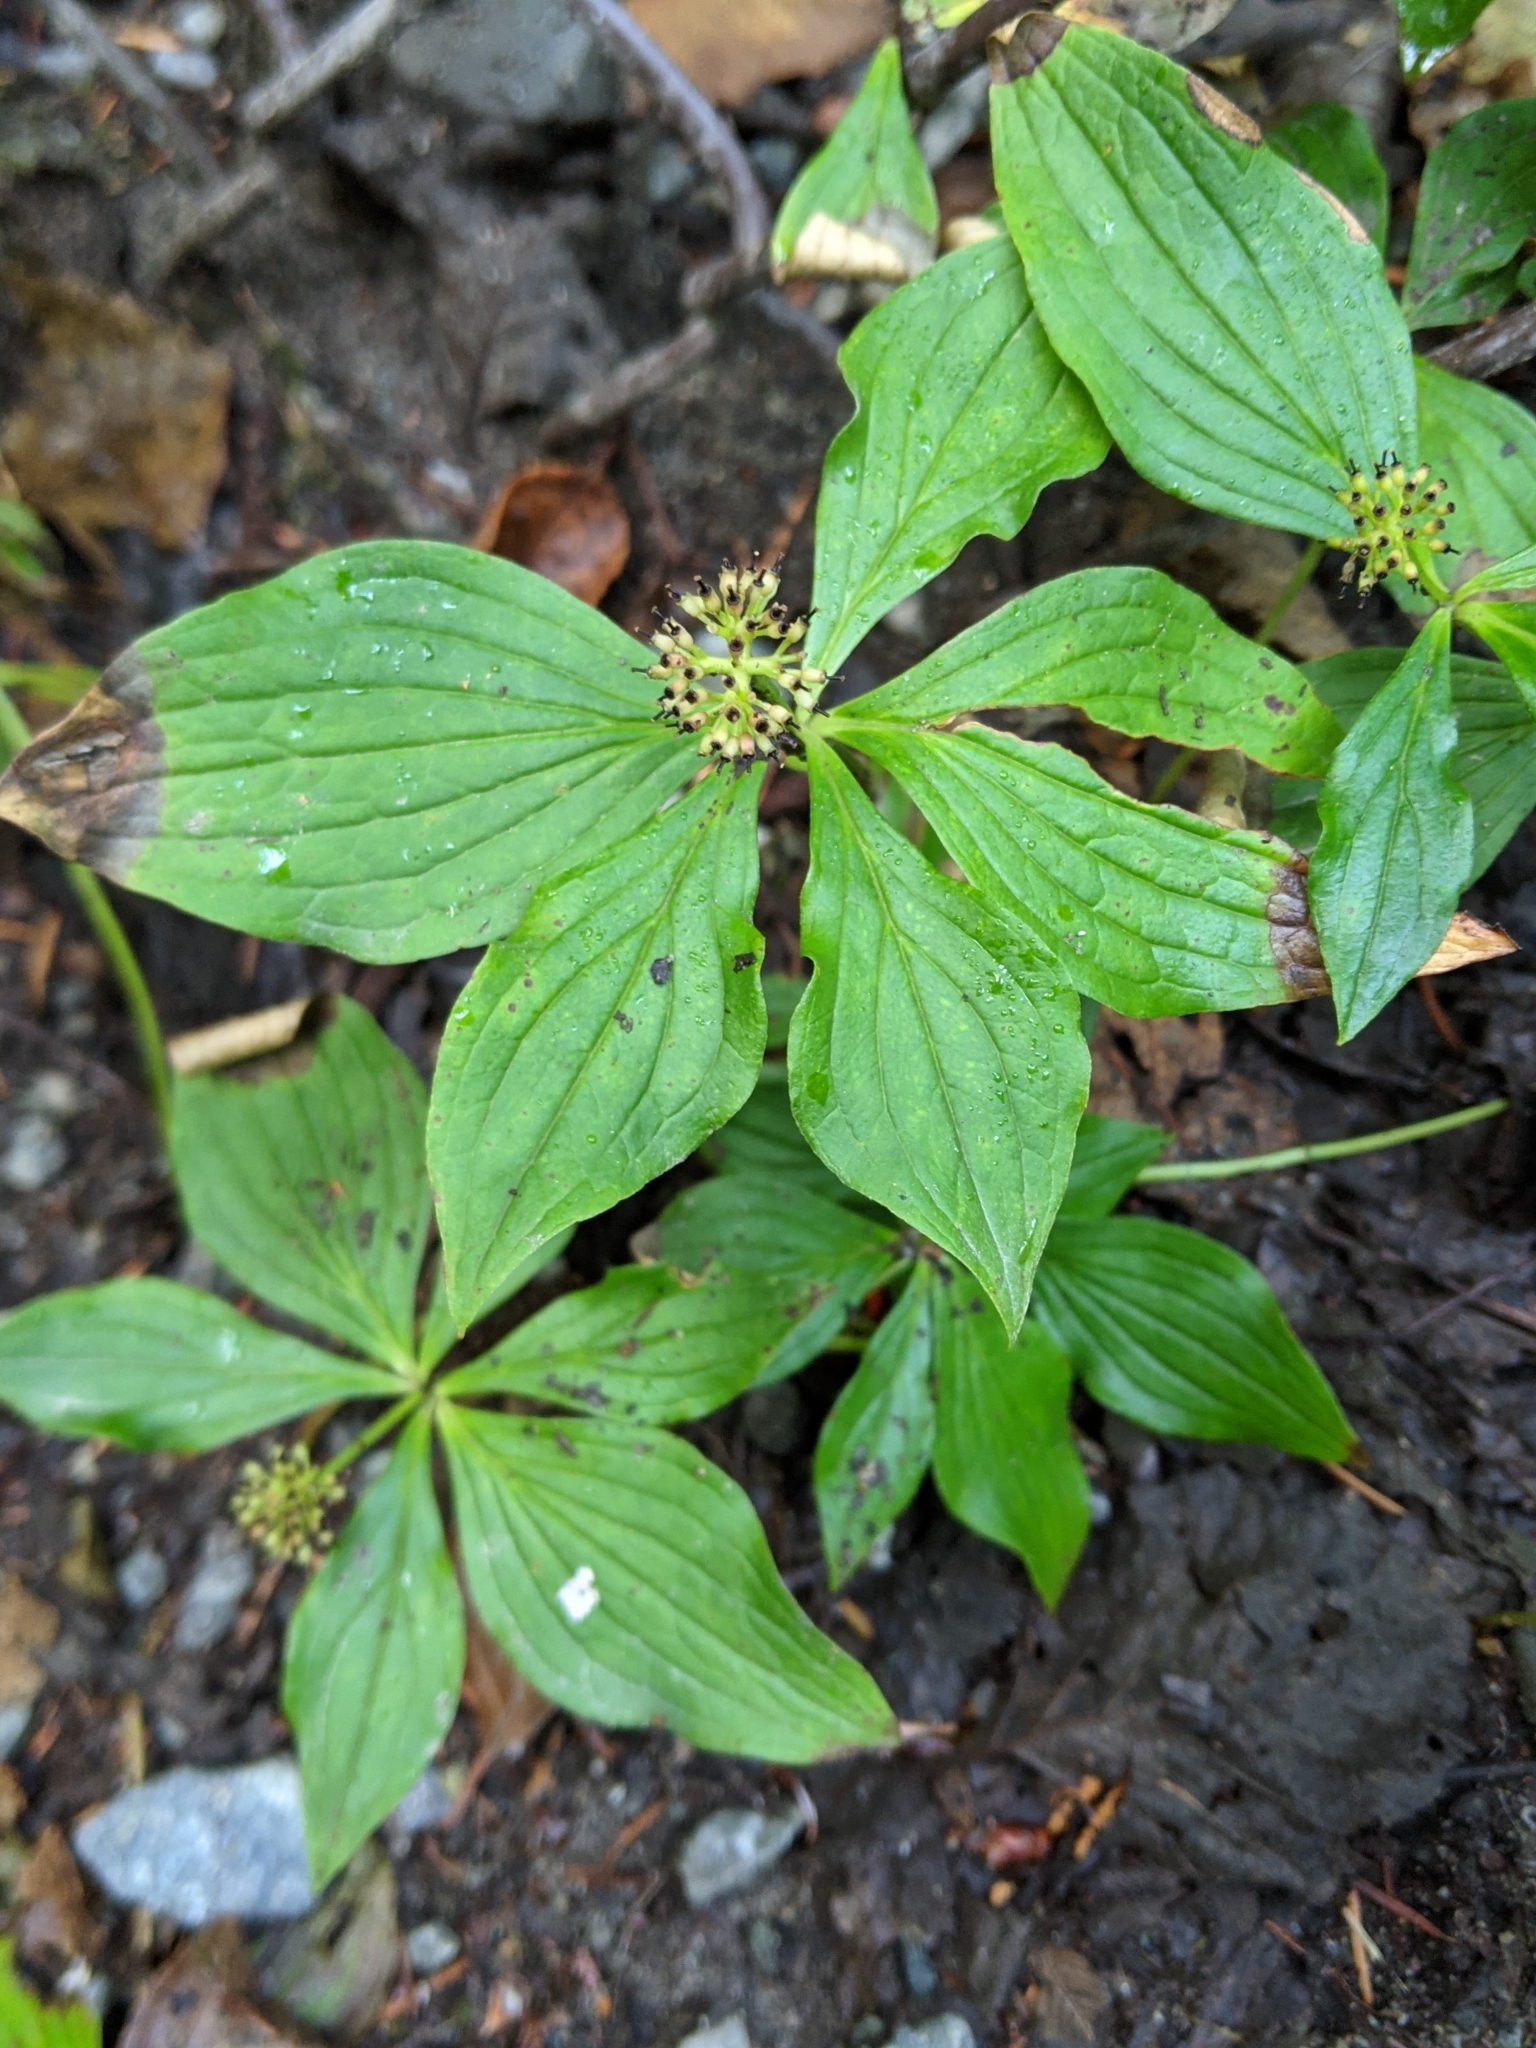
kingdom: Plantae
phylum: Tracheophyta
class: Magnoliopsida
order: Cornales
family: Cornaceae
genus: Cornus
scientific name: Cornus unalaschkensis
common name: Alaska bunchberry
